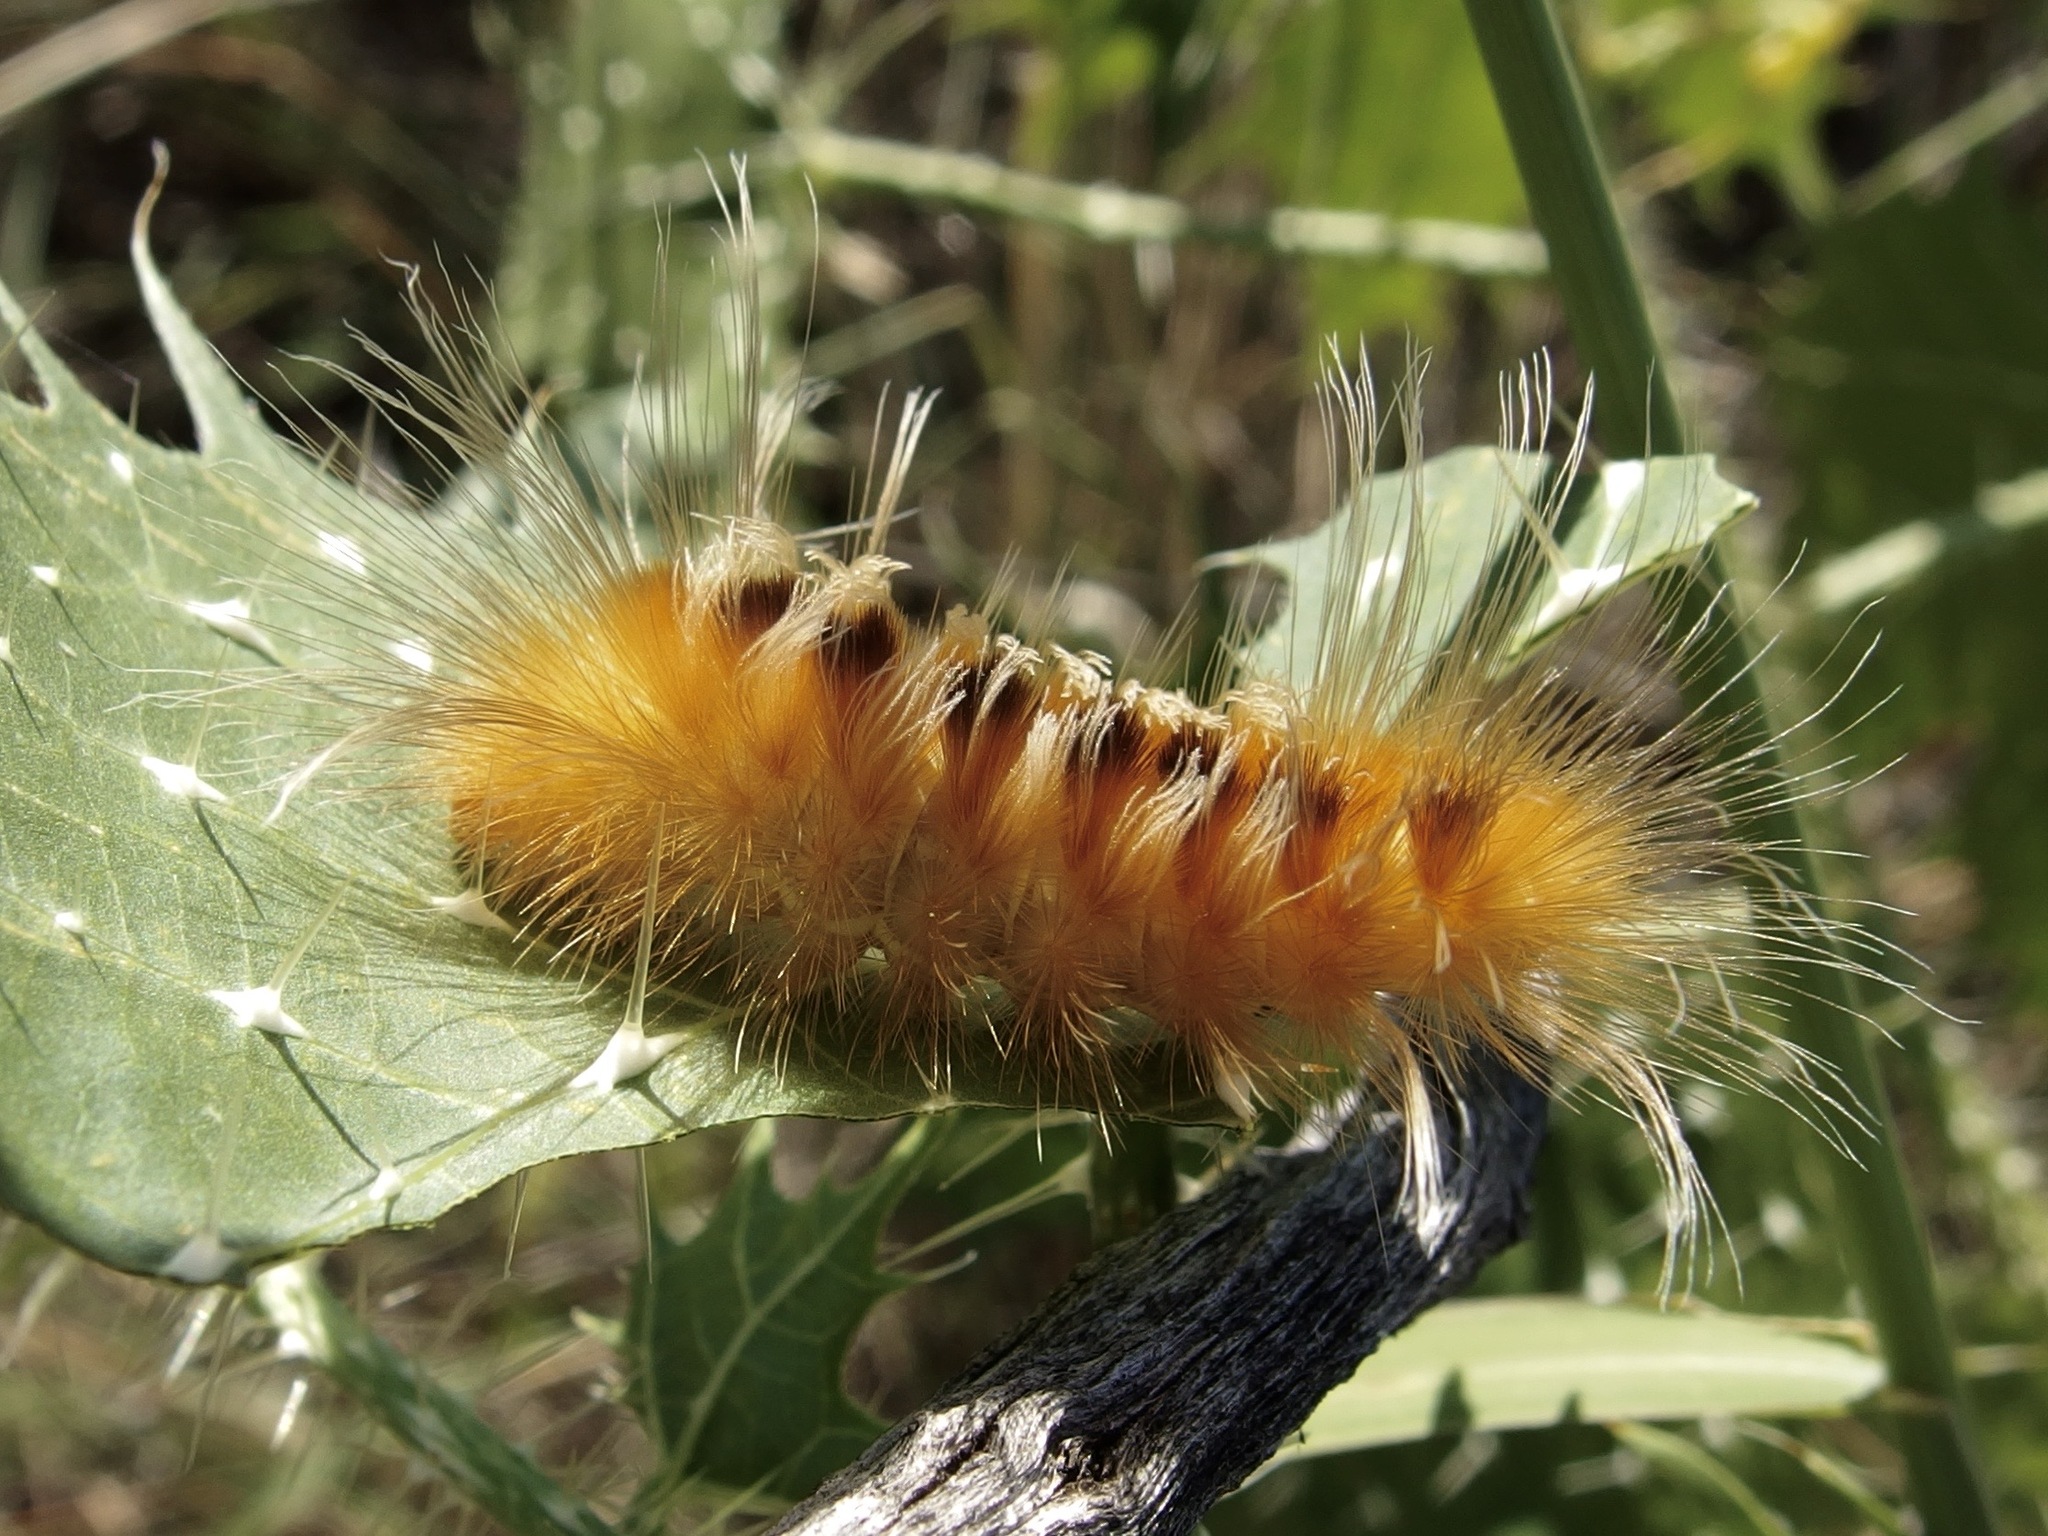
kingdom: Animalia
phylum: Arthropoda
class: Insecta
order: Lepidoptera
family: Erebidae
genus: Pygarctia
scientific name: Pygarctia roseicapitis
